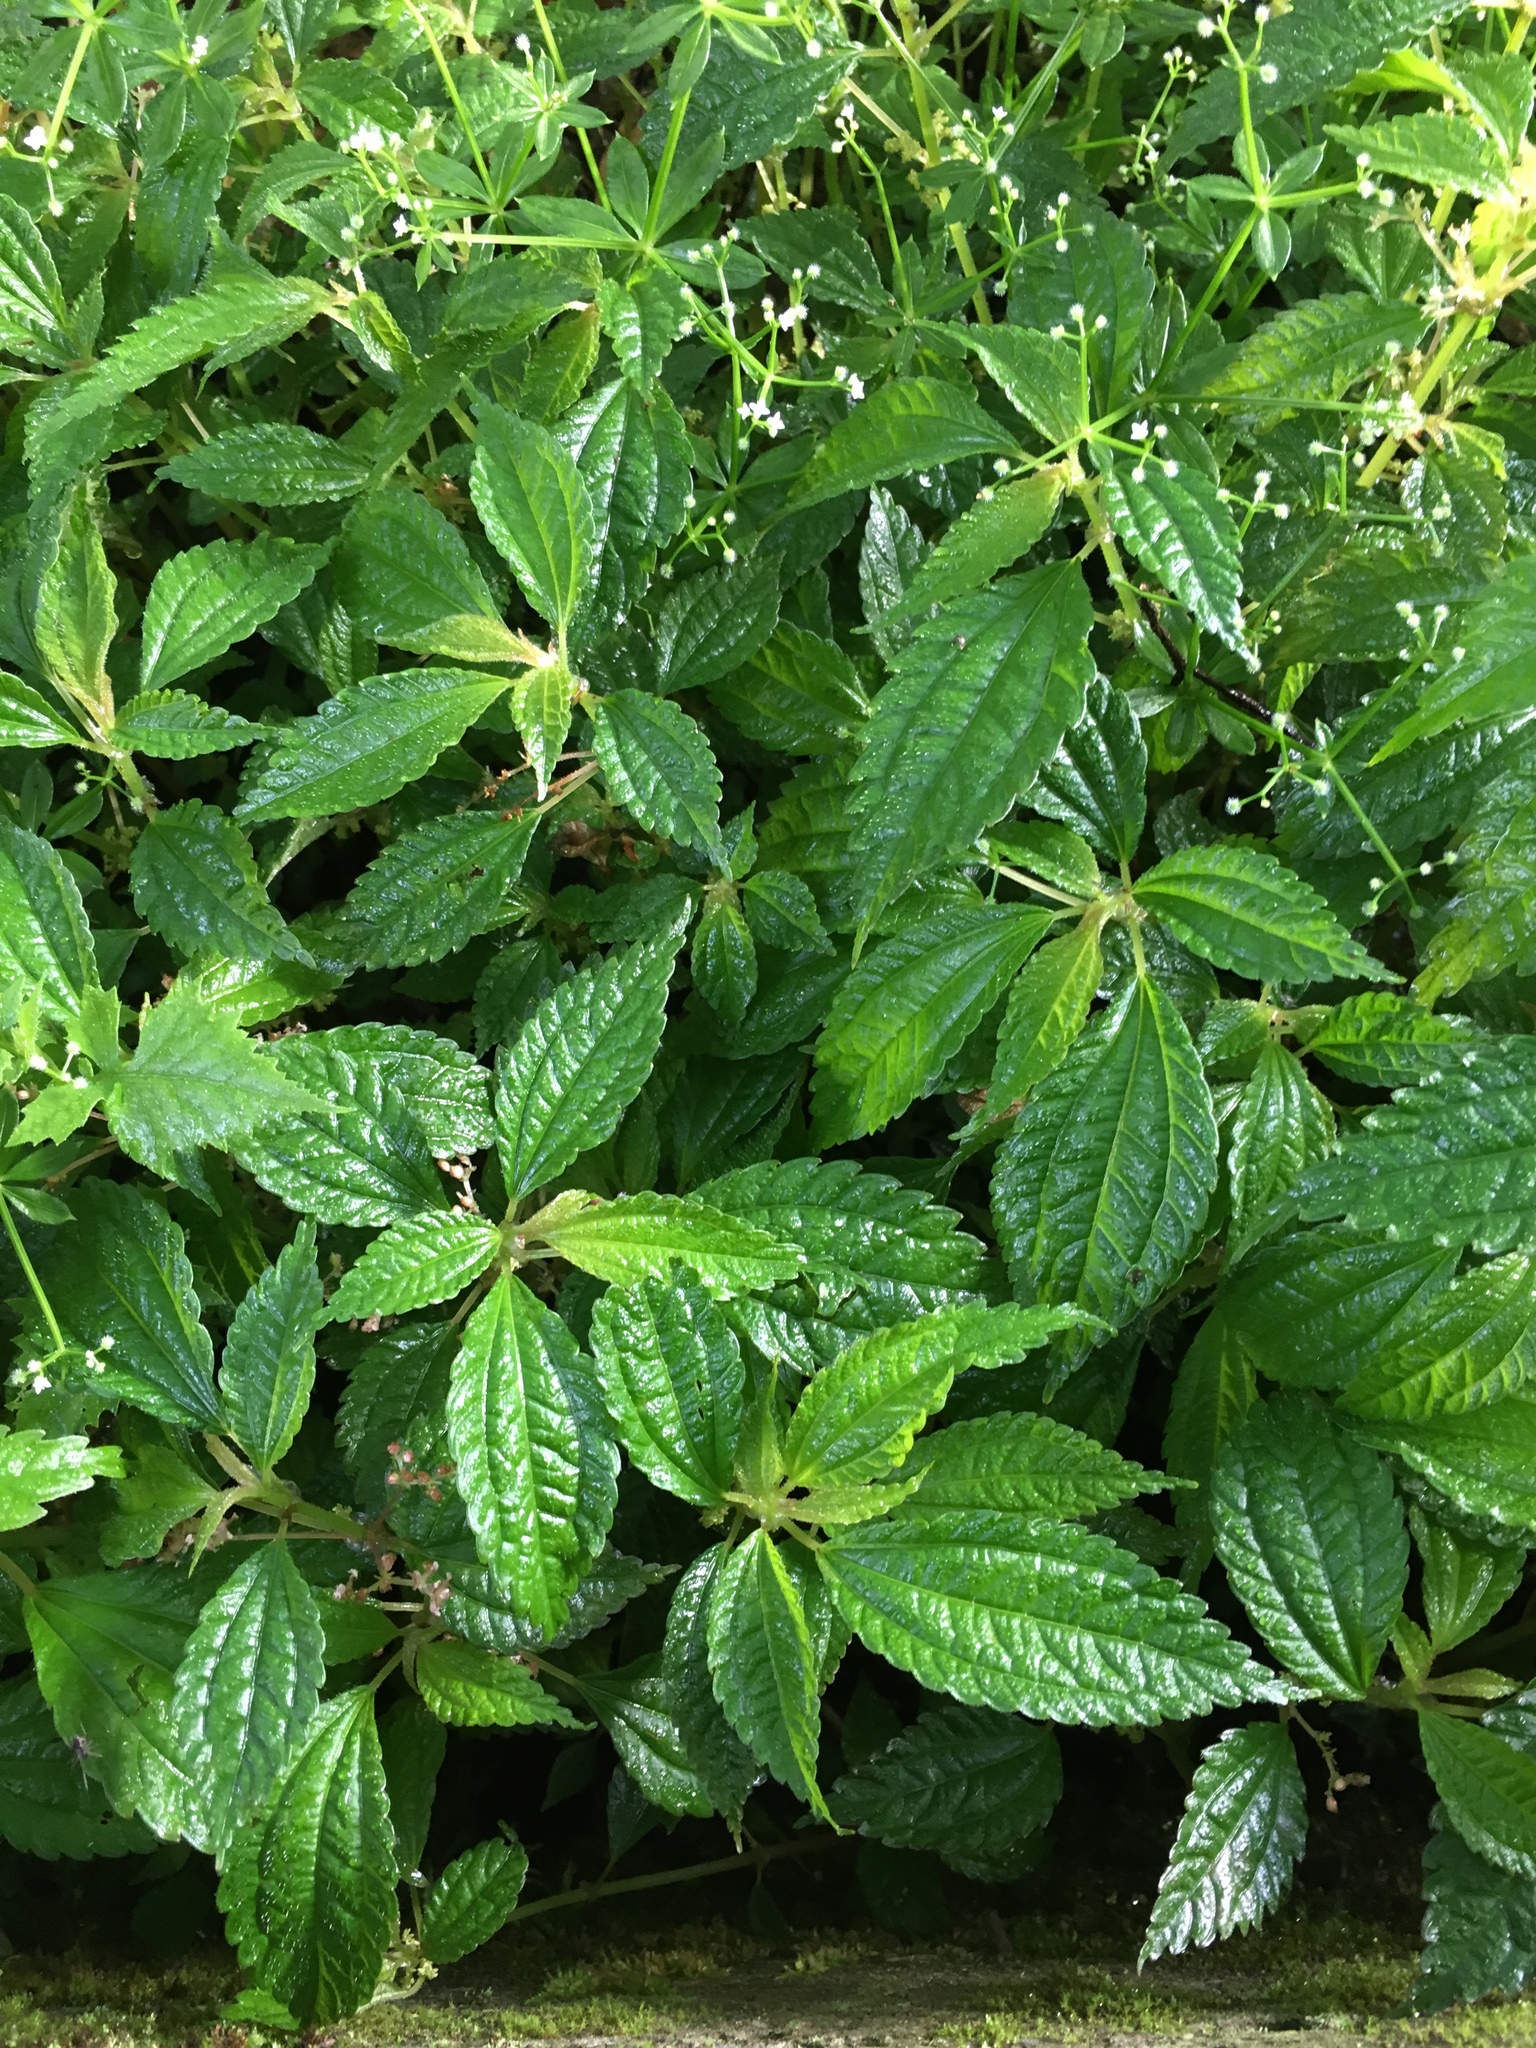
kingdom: Plantae
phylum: Tracheophyta
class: Magnoliopsida
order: Rosales
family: Urticaceae
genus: Pilea
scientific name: Pilea aquarum
